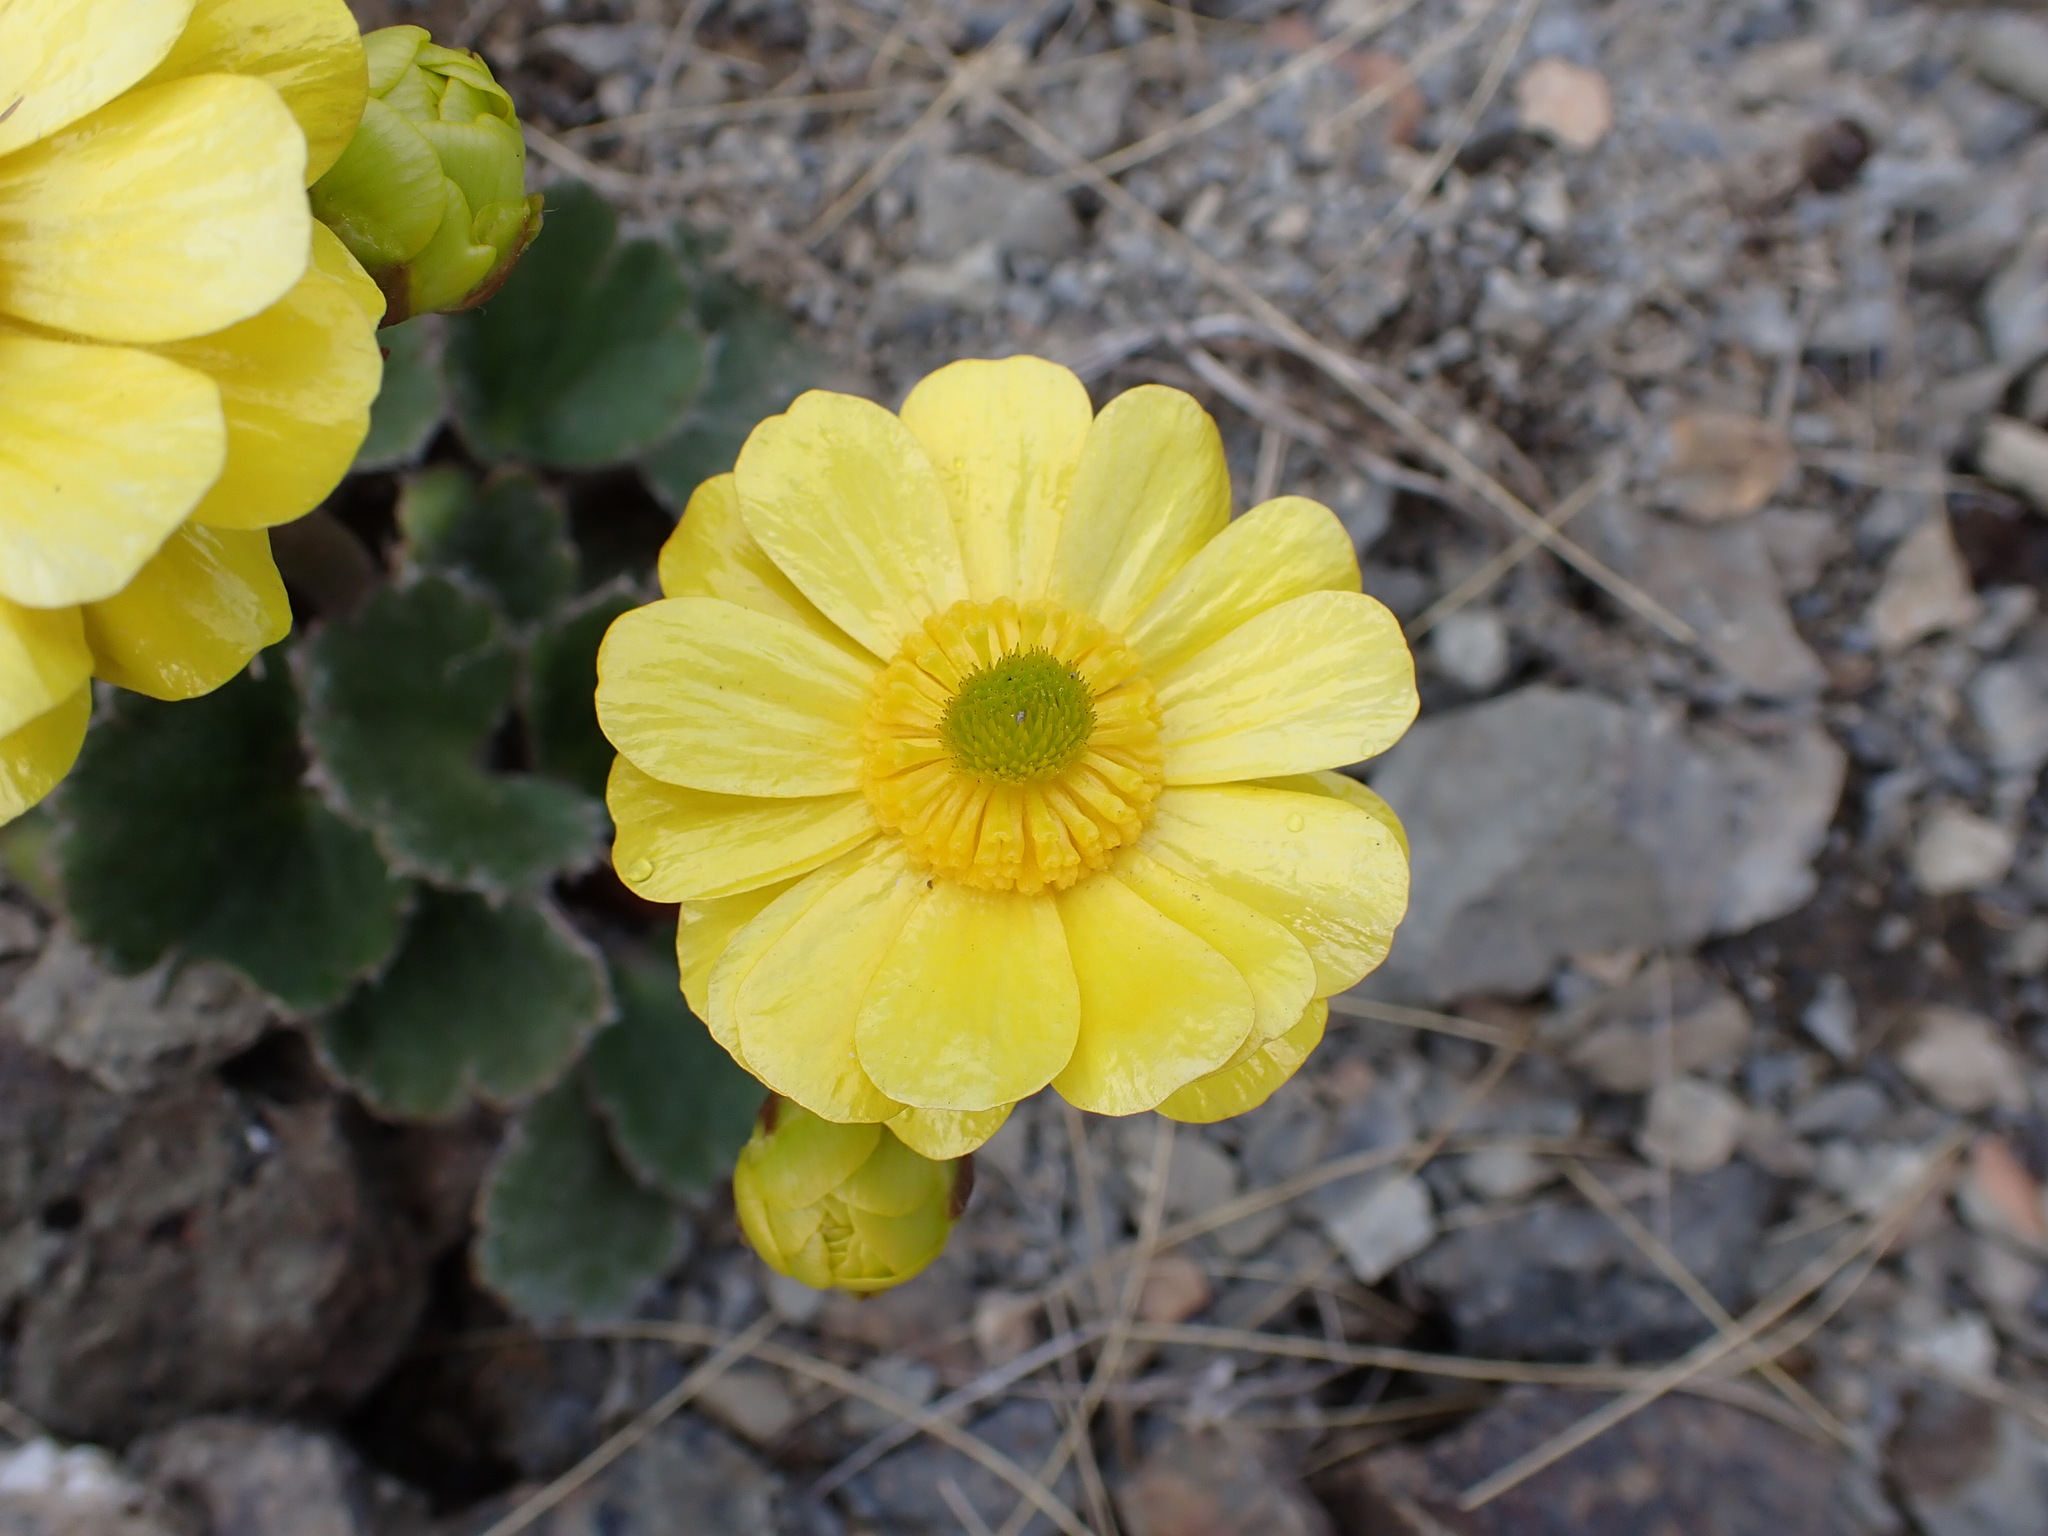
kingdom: Plantae
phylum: Tracheophyta
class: Magnoliopsida
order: Ranunculales
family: Ranunculaceae
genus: Ranunculus
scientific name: Ranunculus insignis
